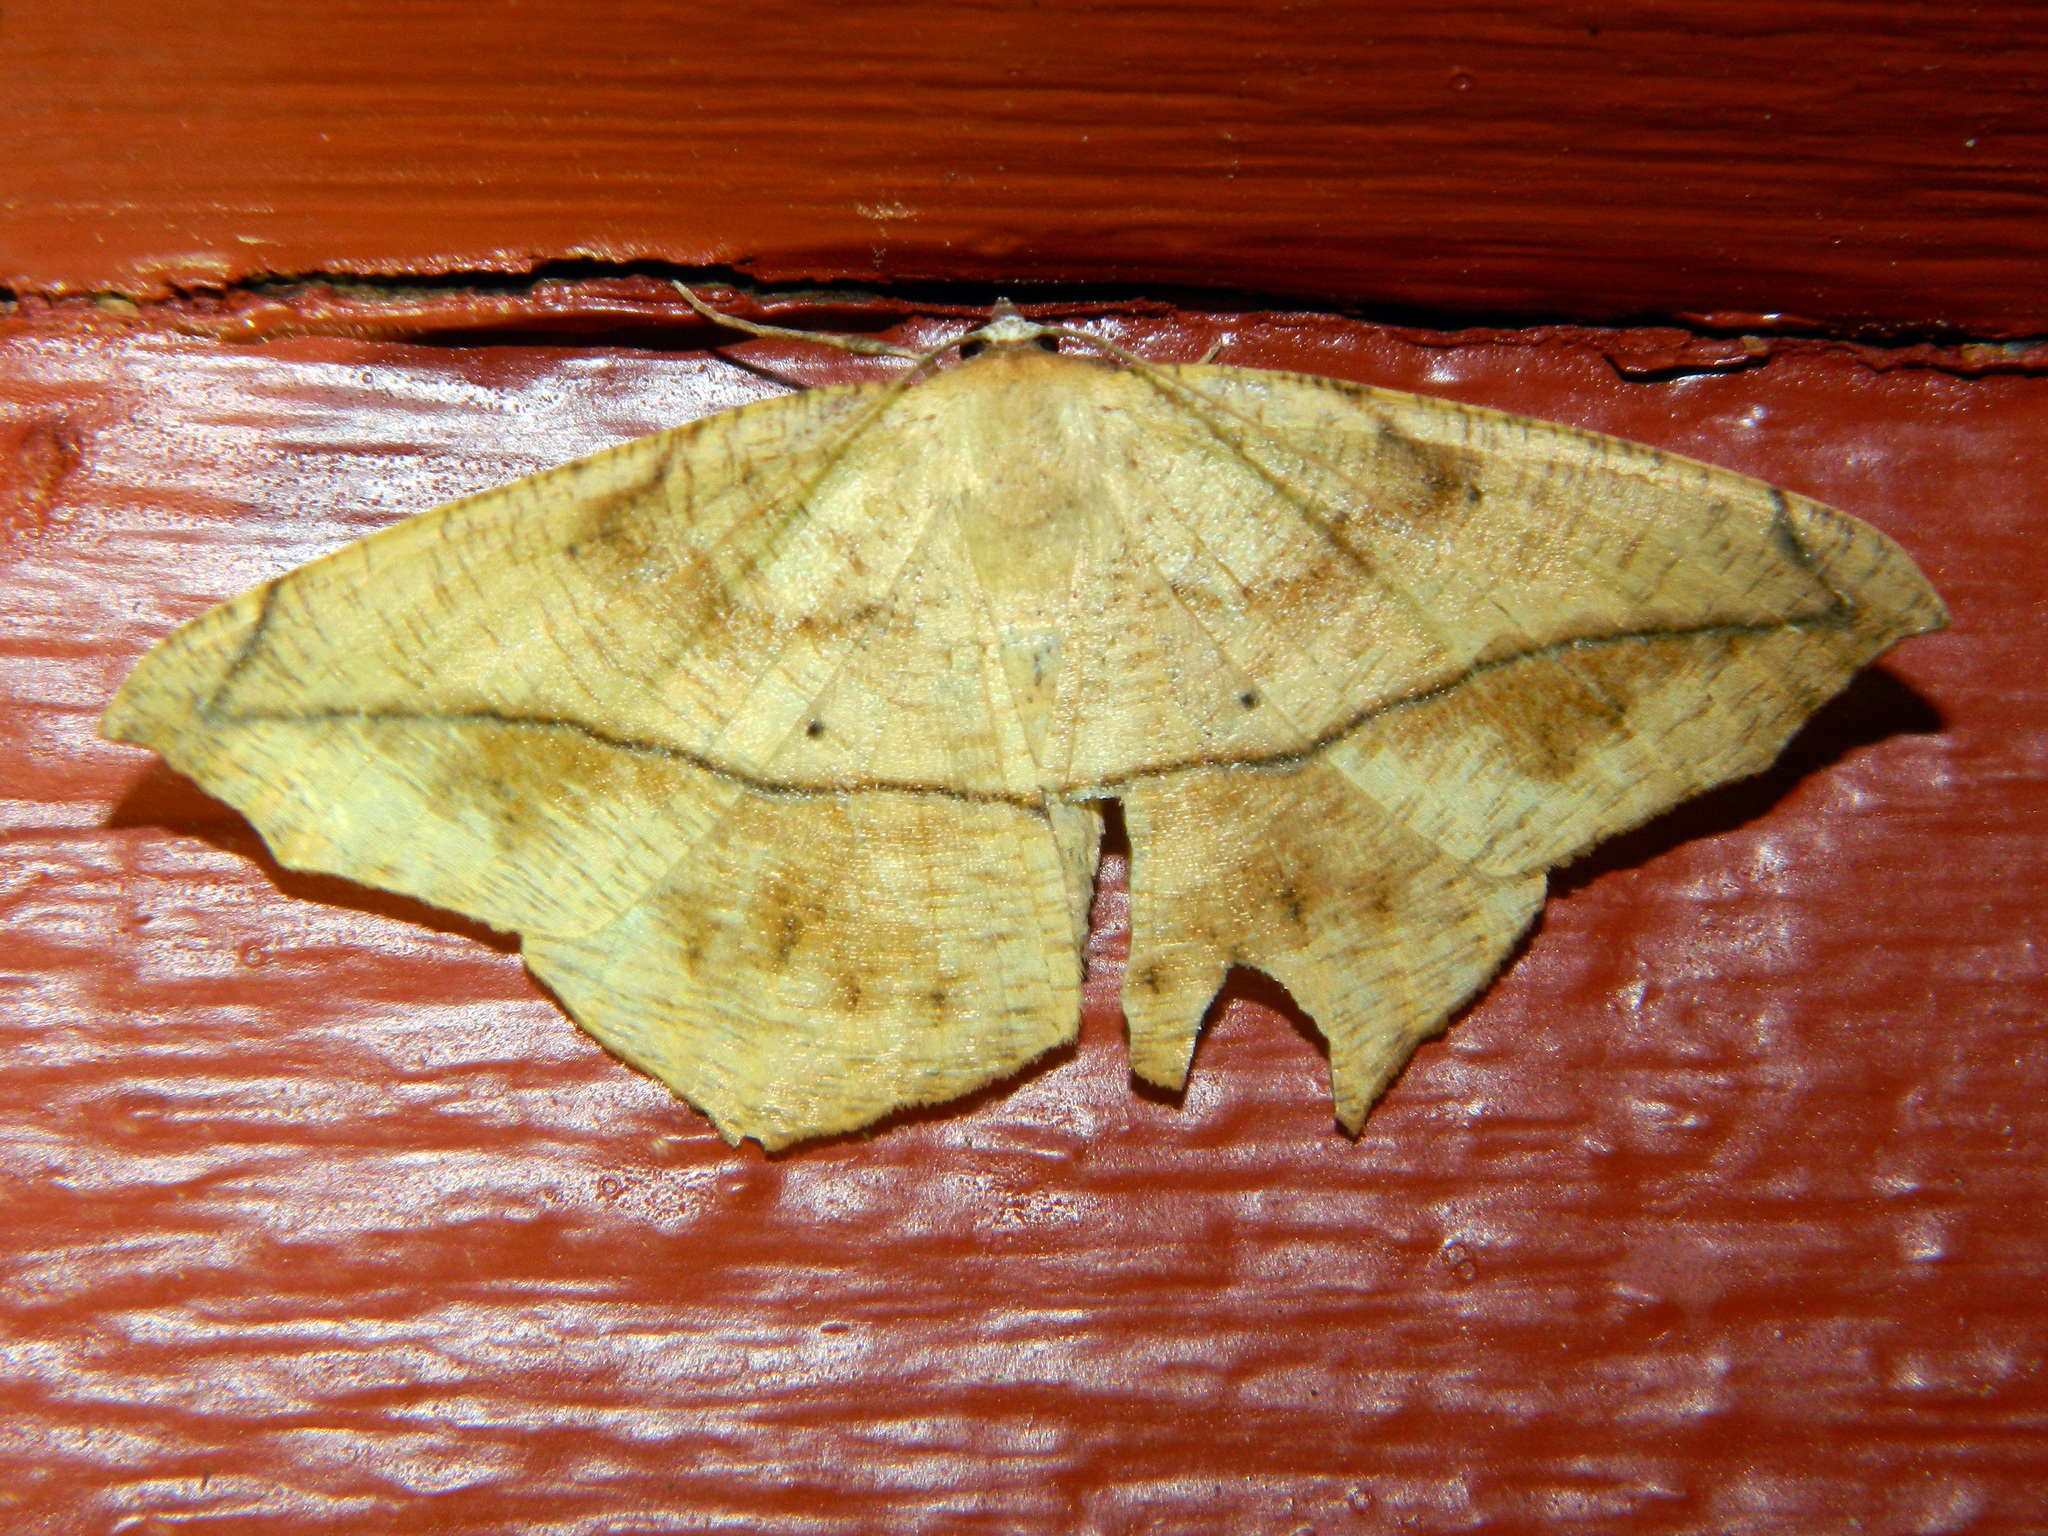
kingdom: Animalia
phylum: Arthropoda
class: Insecta
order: Lepidoptera
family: Geometridae
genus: Prochoerodes
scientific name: Prochoerodes lineola
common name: Large maple spanworm
